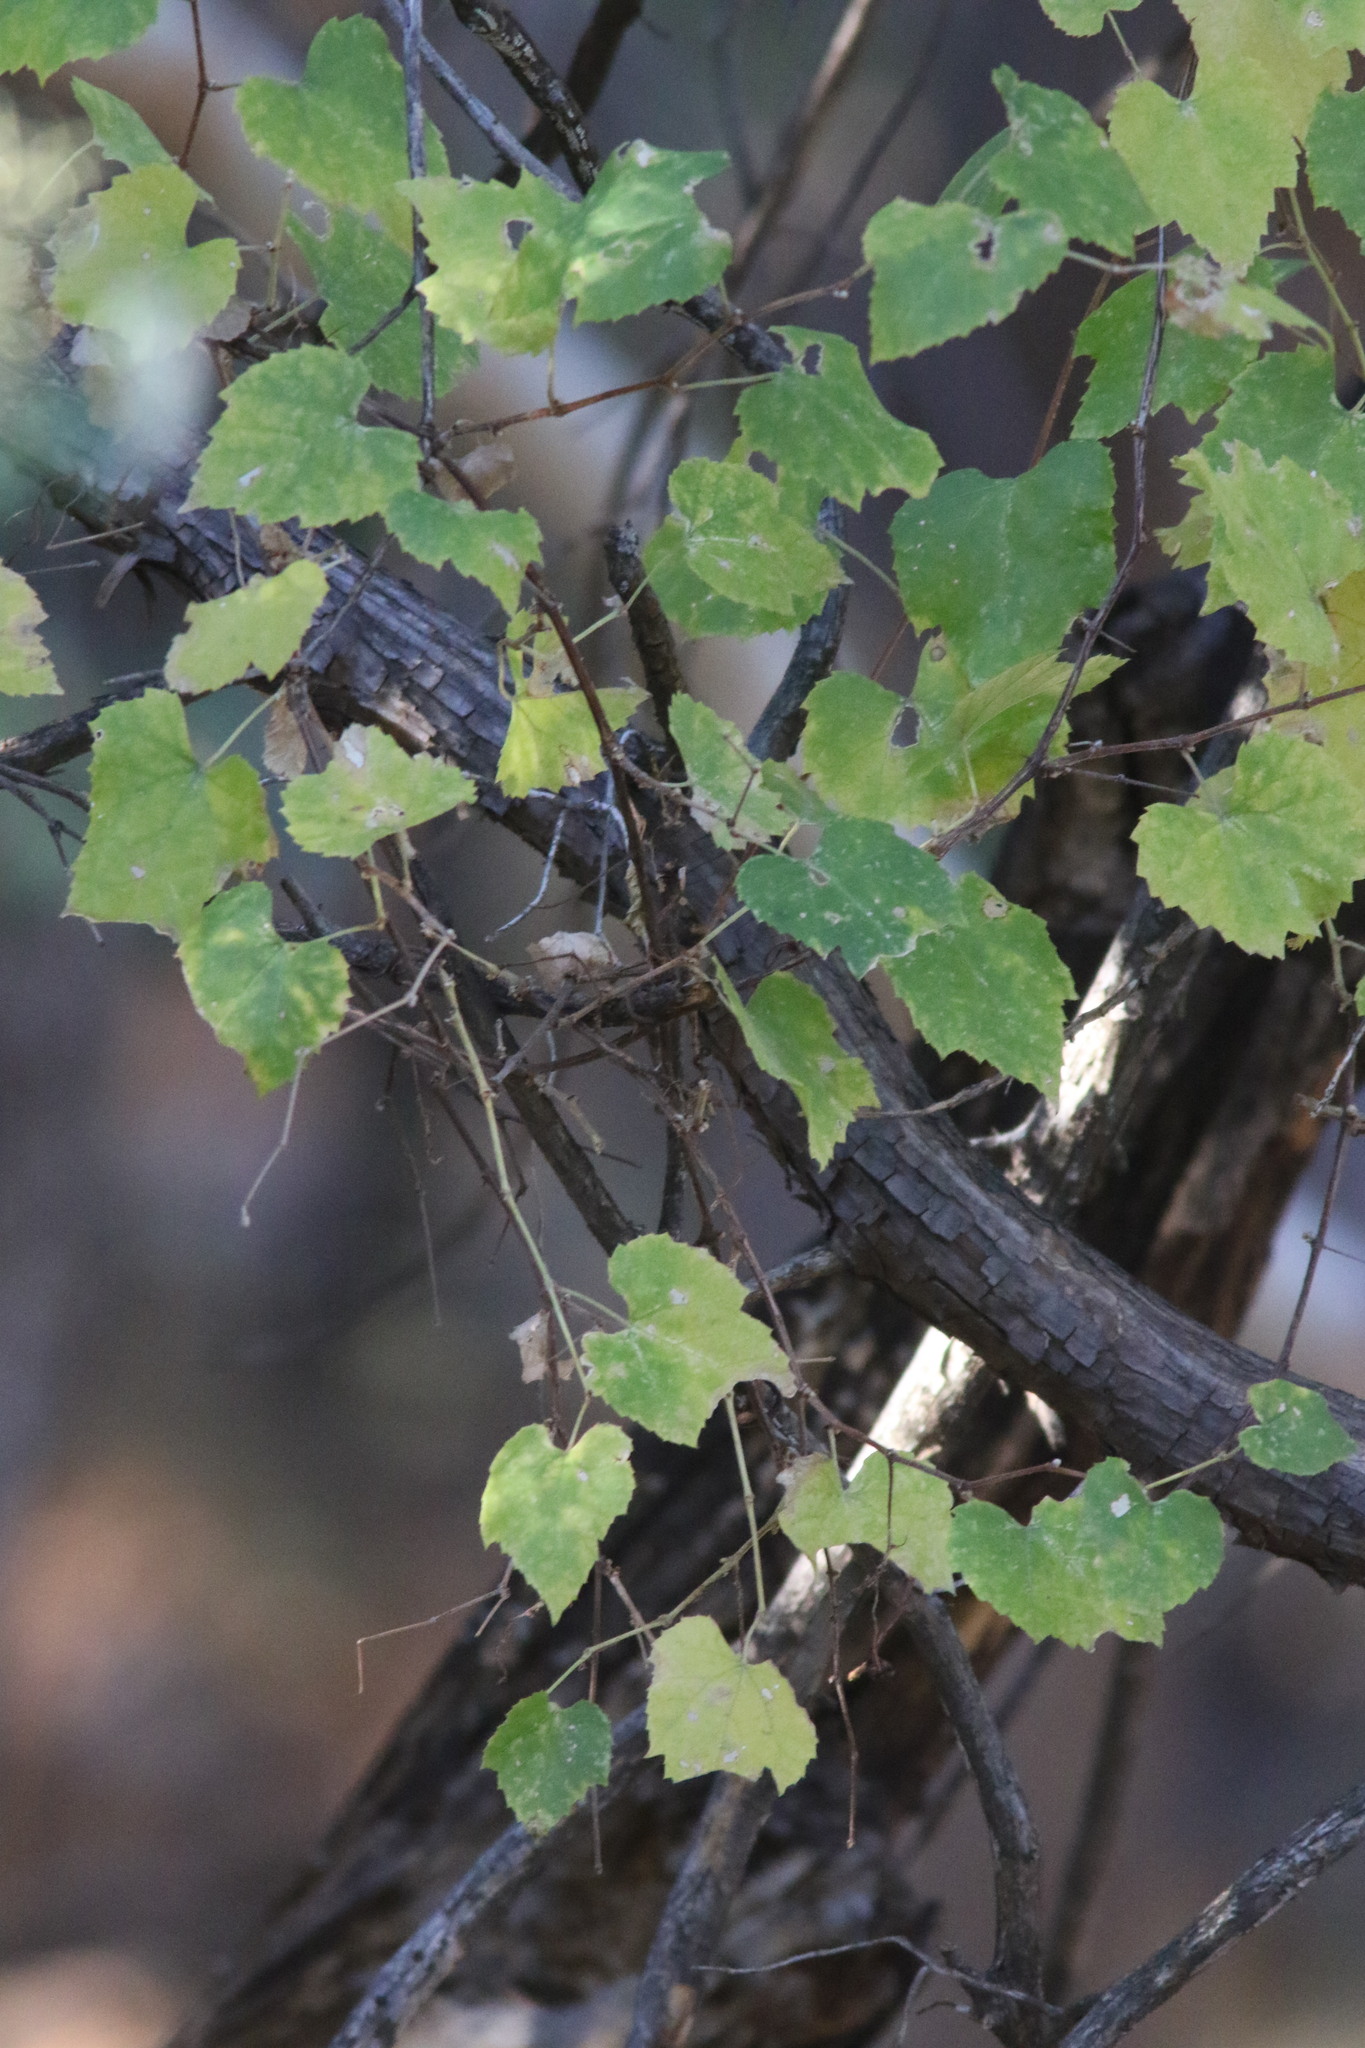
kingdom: Plantae
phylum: Tracheophyta
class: Magnoliopsida
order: Vitales
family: Vitaceae
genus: Vitis
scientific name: Vitis arizonica
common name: Canyon grape
